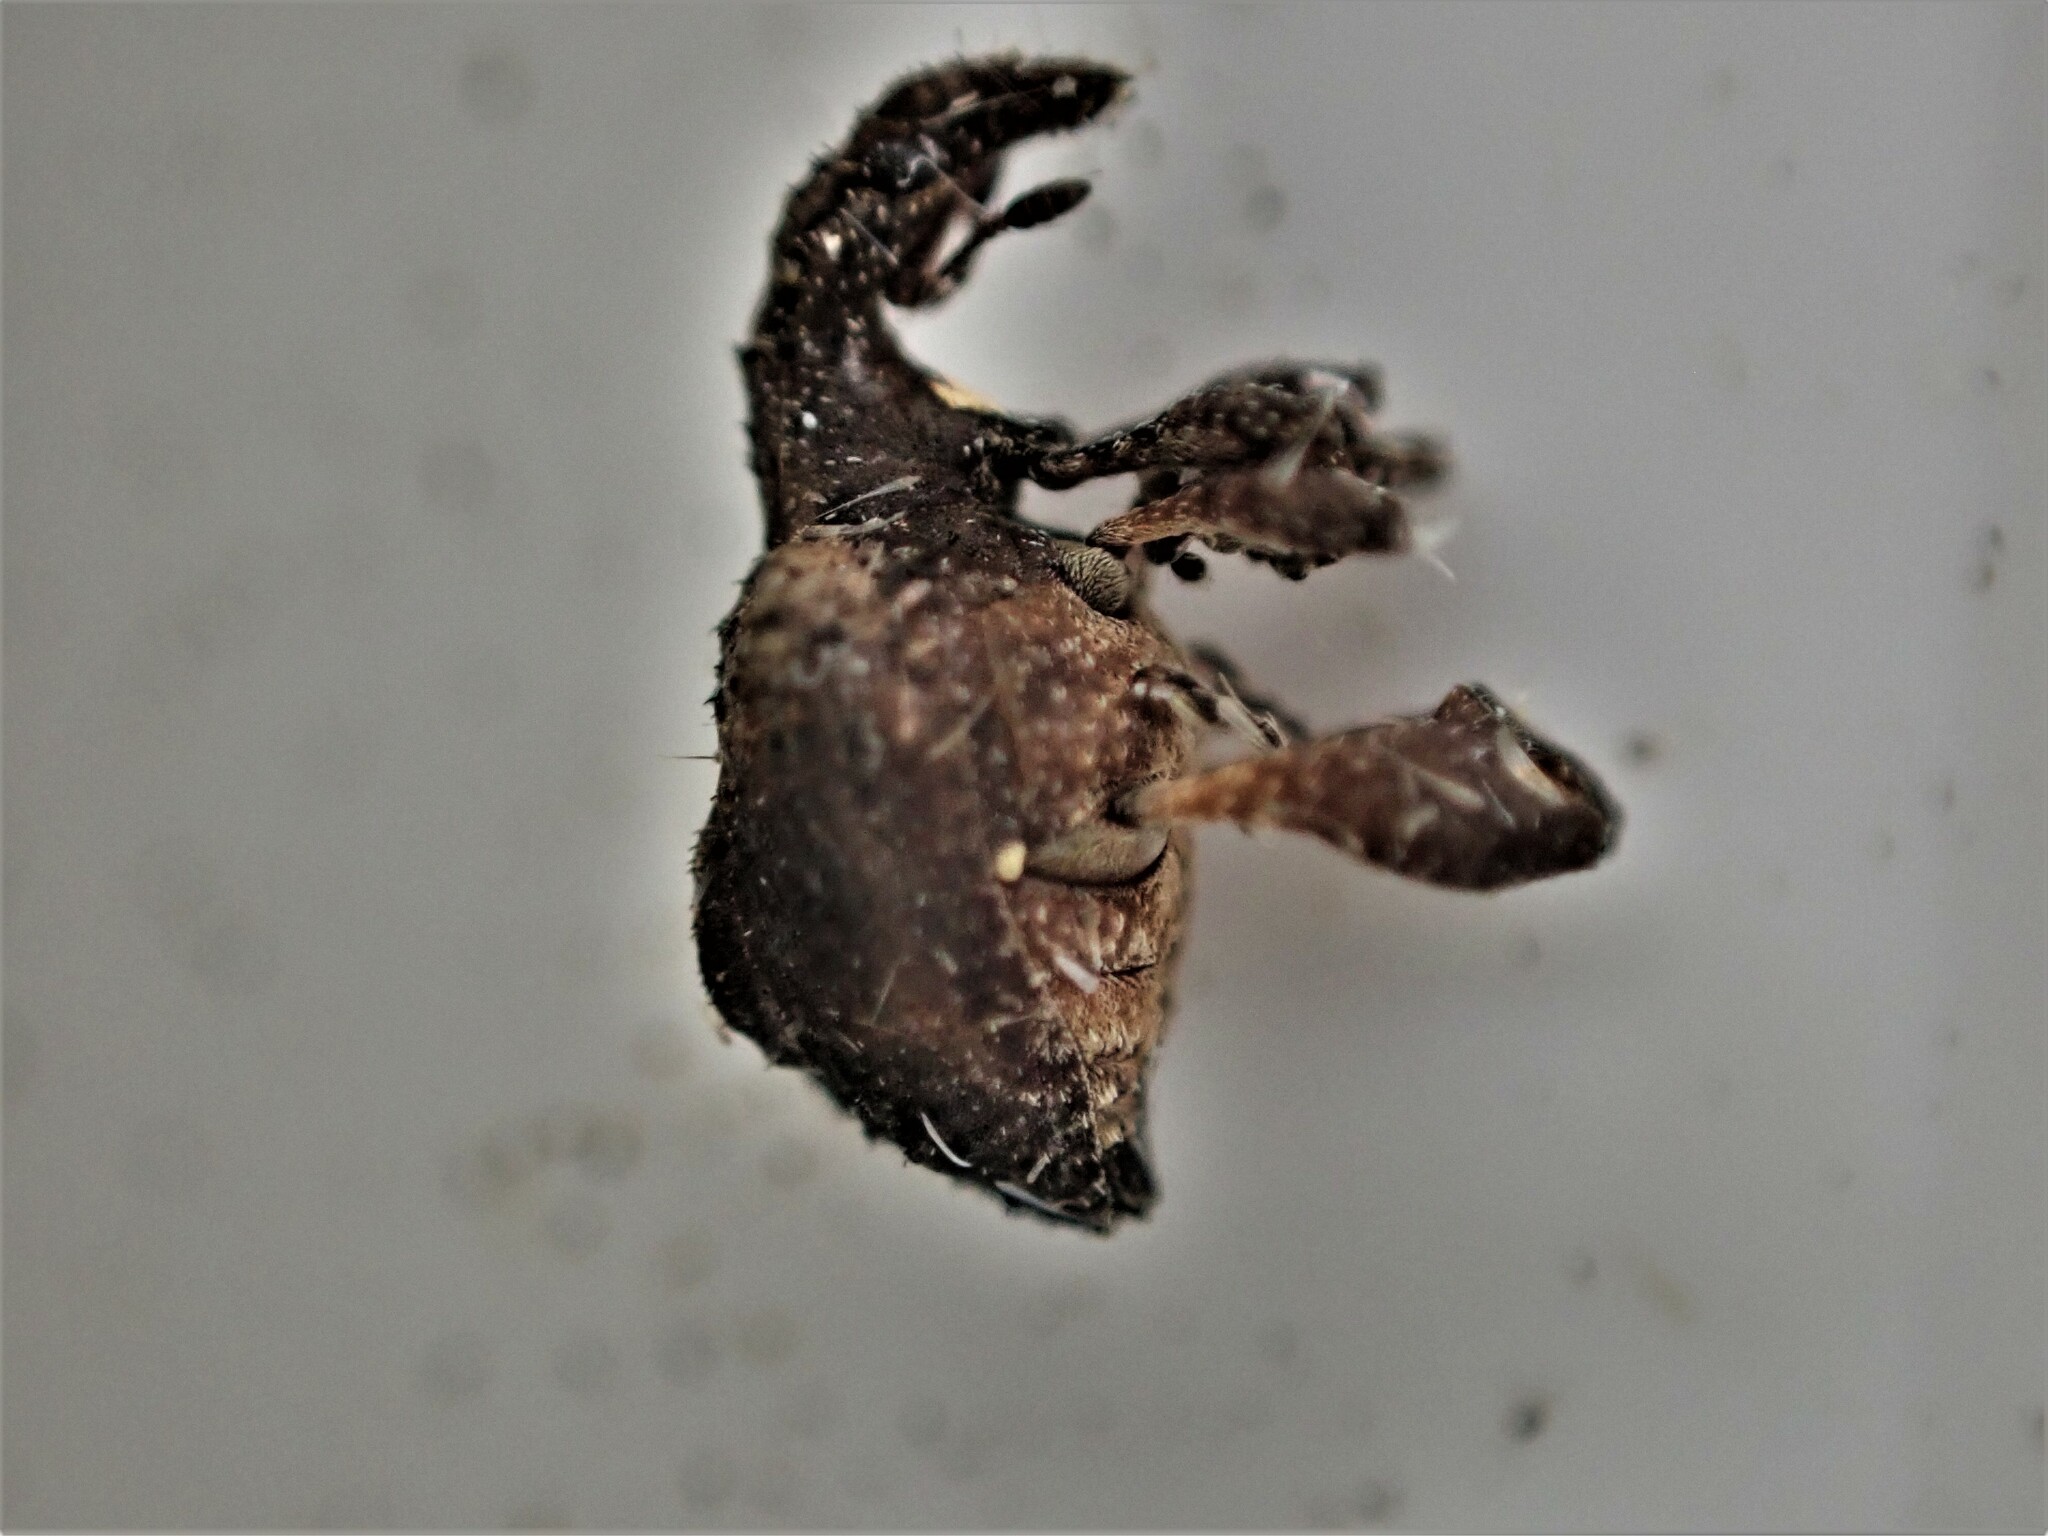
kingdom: Animalia
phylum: Arthropoda
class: Insecta
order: Coleoptera
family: Curculionidae
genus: Stephanorrhynchus
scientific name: Stephanorrhynchus crassus
